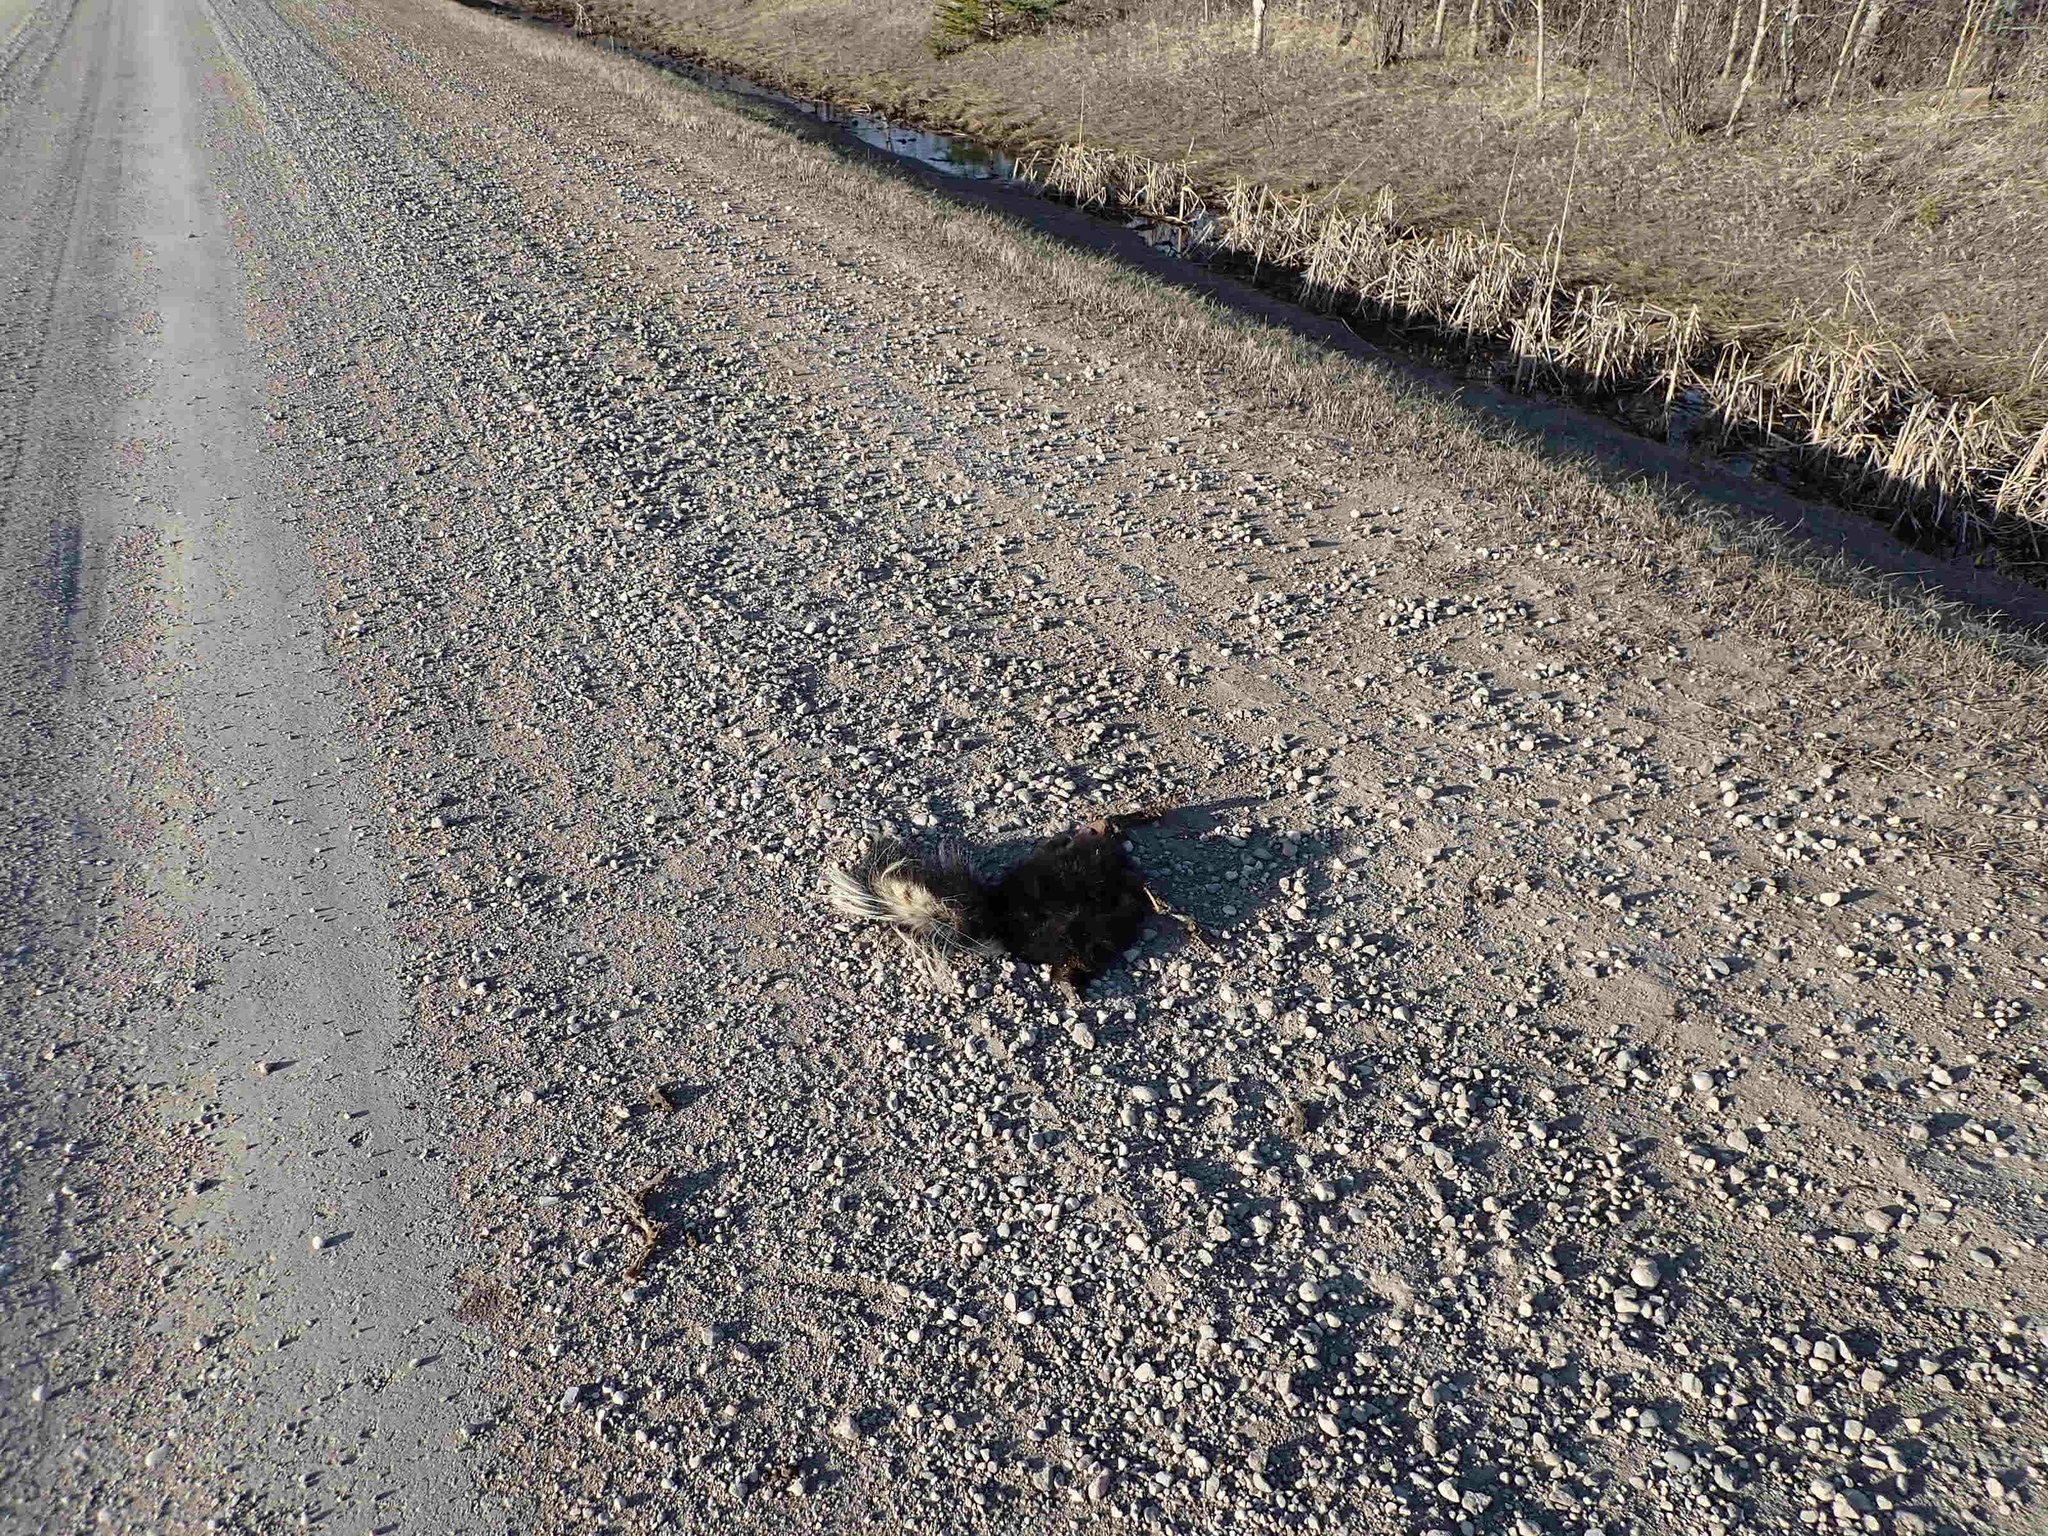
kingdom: Animalia
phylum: Chordata
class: Mammalia
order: Carnivora
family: Mephitidae
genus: Mephitis
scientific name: Mephitis mephitis
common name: Striped skunk
